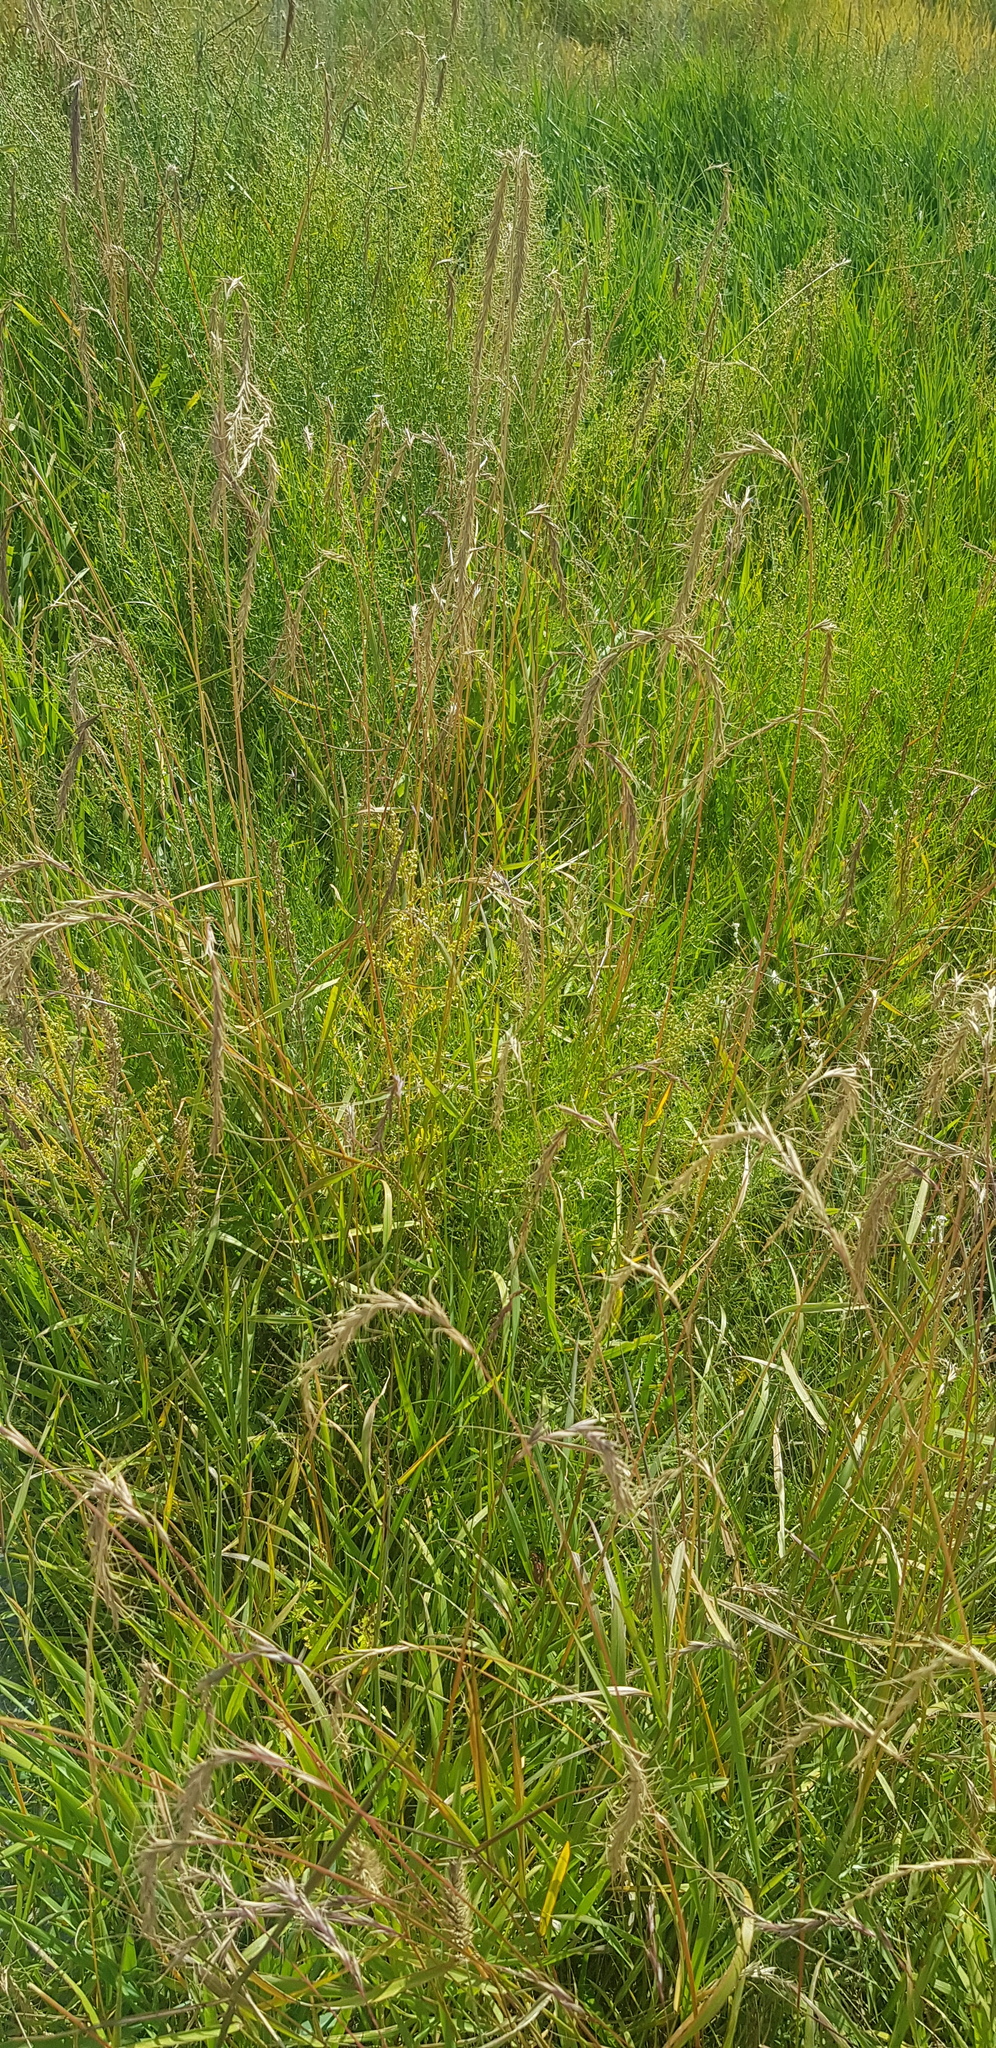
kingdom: Plantae
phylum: Tracheophyta
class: Liliopsida
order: Poales
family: Poaceae
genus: Elymus
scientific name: Elymus sibiricus
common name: Siberian wildrye
